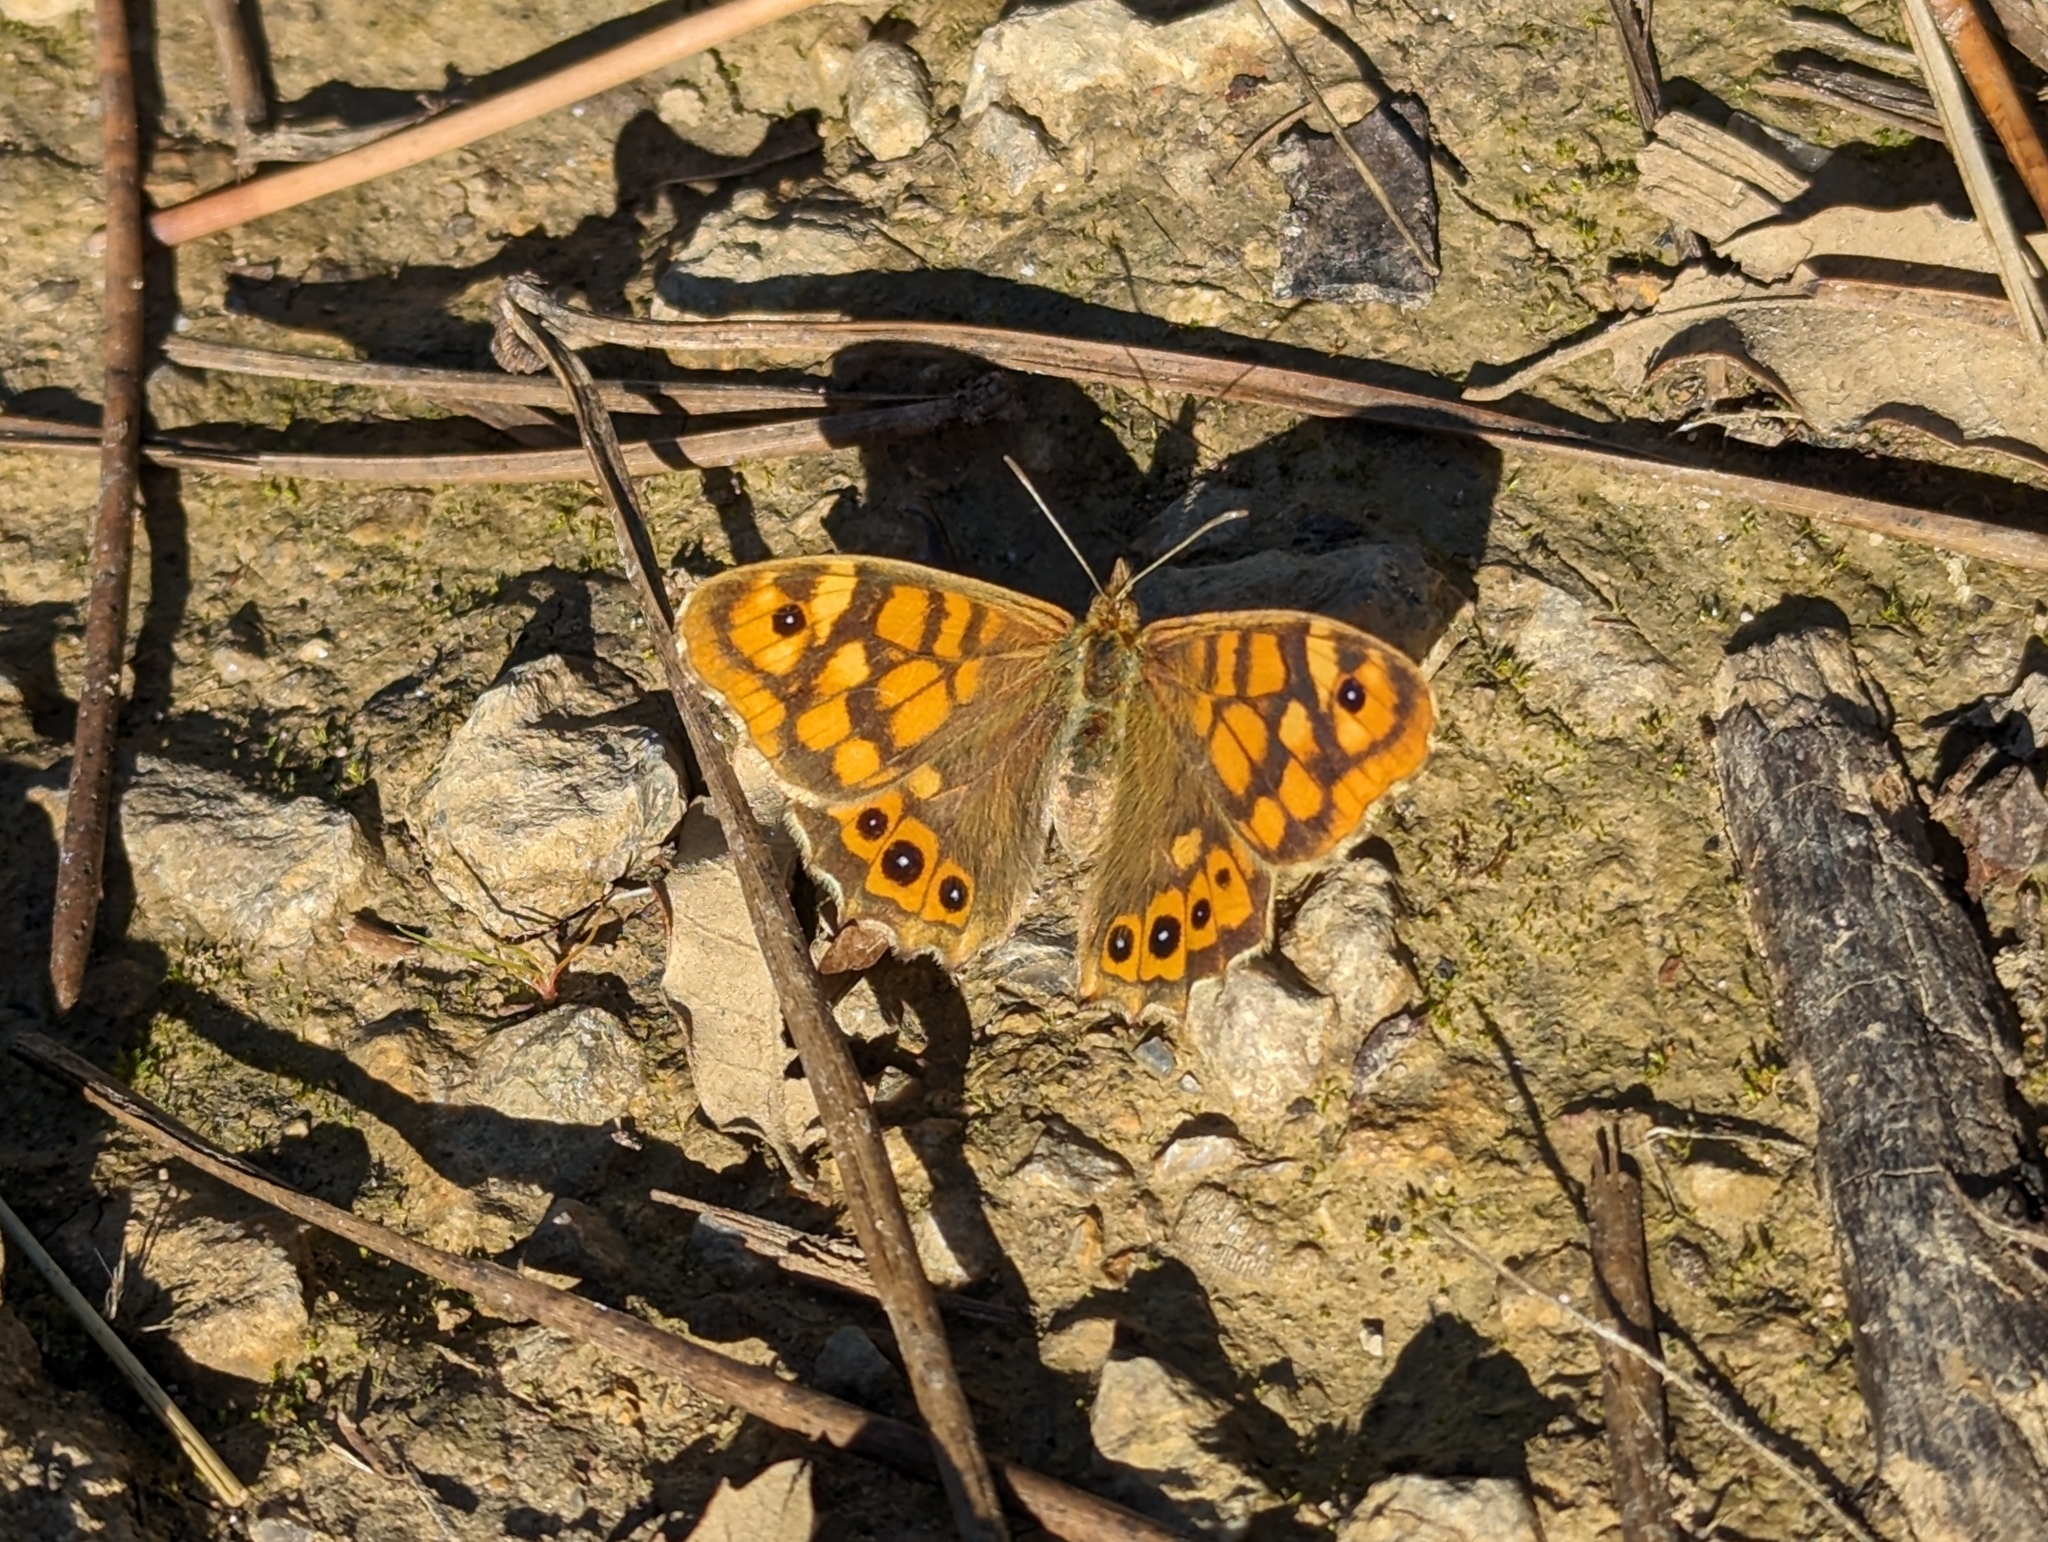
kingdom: Animalia
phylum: Arthropoda
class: Insecta
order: Lepidoptera
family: Nymphalidae
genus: Pararge
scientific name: Pararge aegeria
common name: Speckled wood
